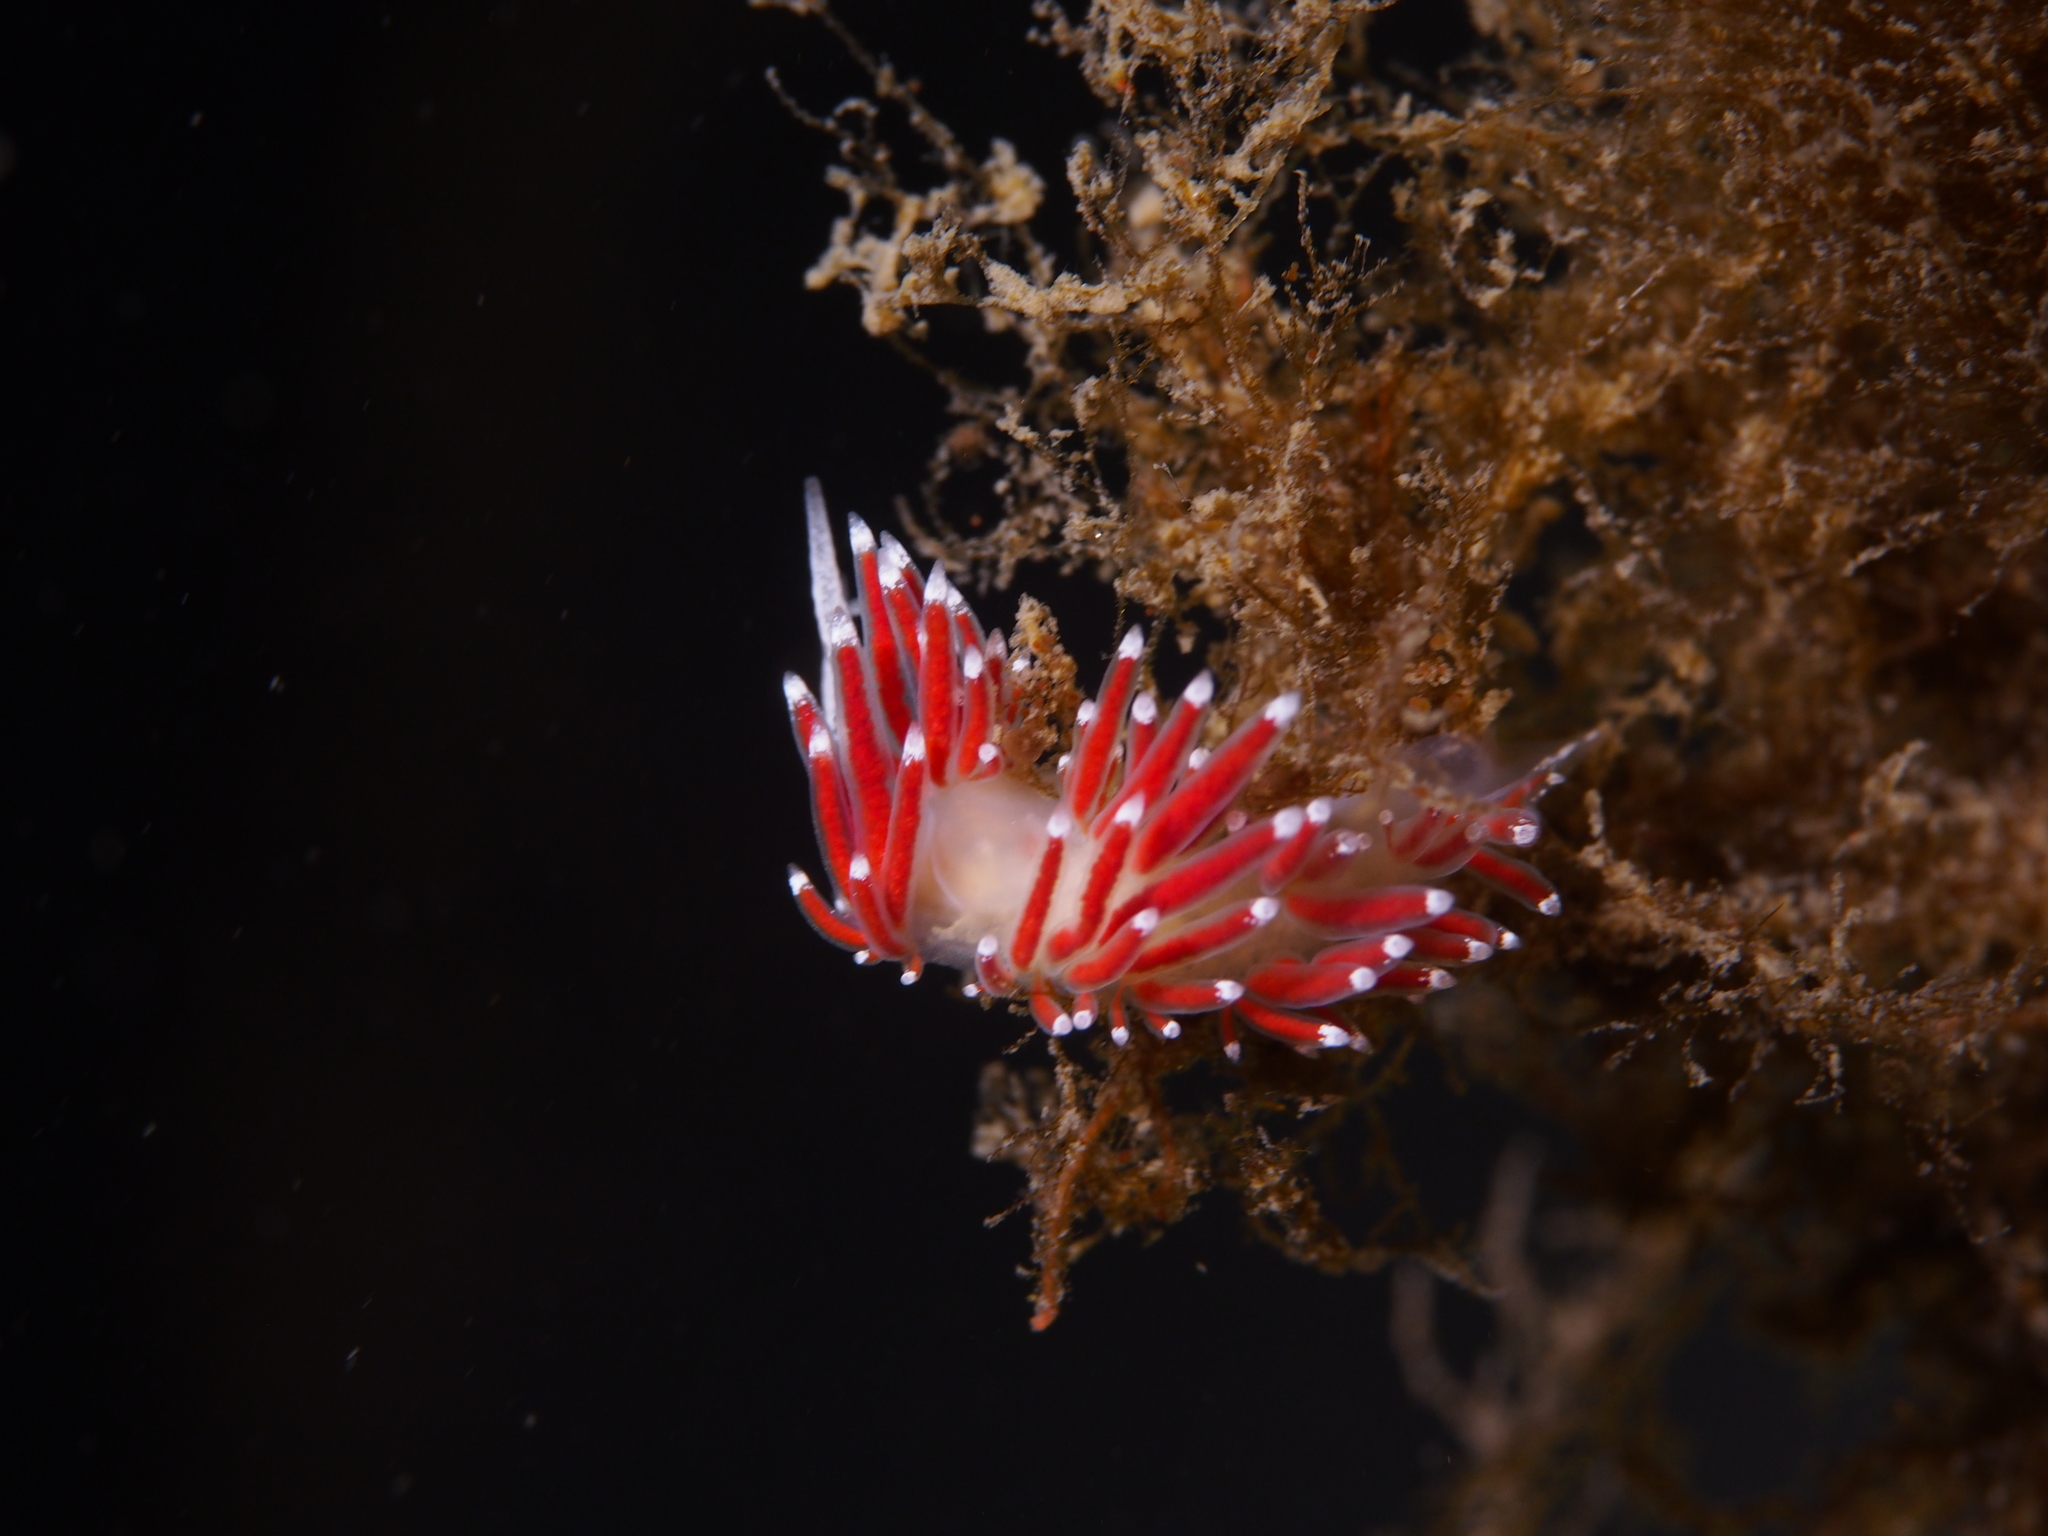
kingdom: Animalia
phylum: Mollusca
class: Gastropoda
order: Nudibranchia
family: Coryphellidae
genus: Coryphella
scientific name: Coryphella gracilis
